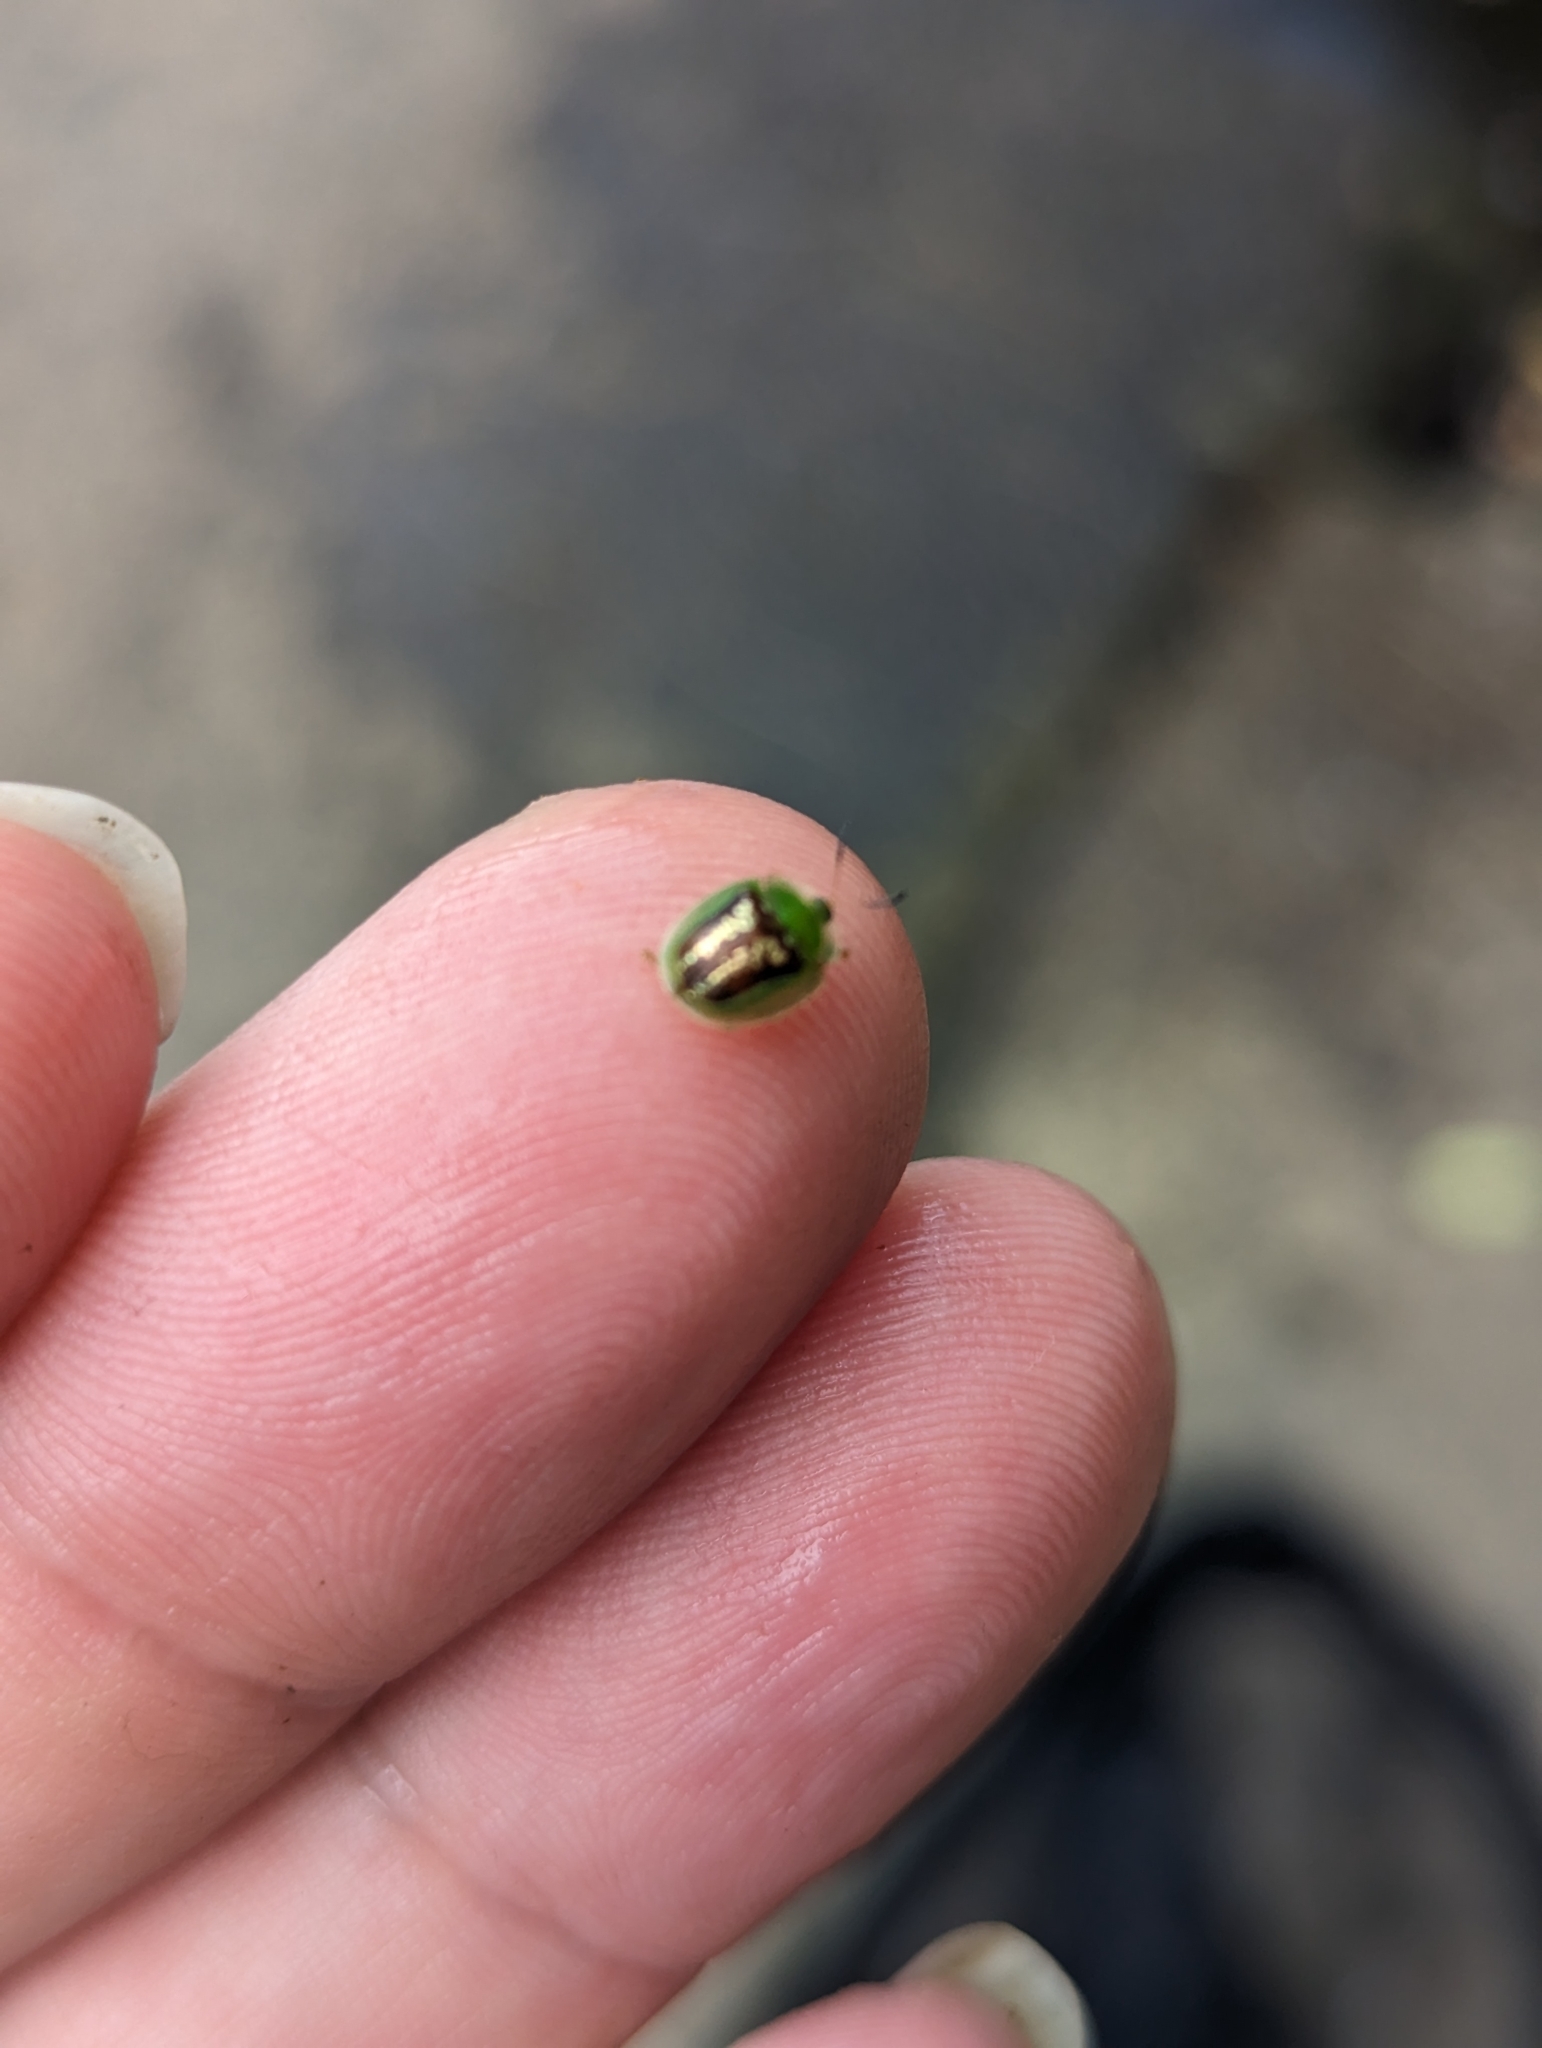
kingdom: Animalia
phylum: Arthropoda
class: Insecta
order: Coleoptera
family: Chrysomelidae
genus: Cassida
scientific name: Cassida compuncta
